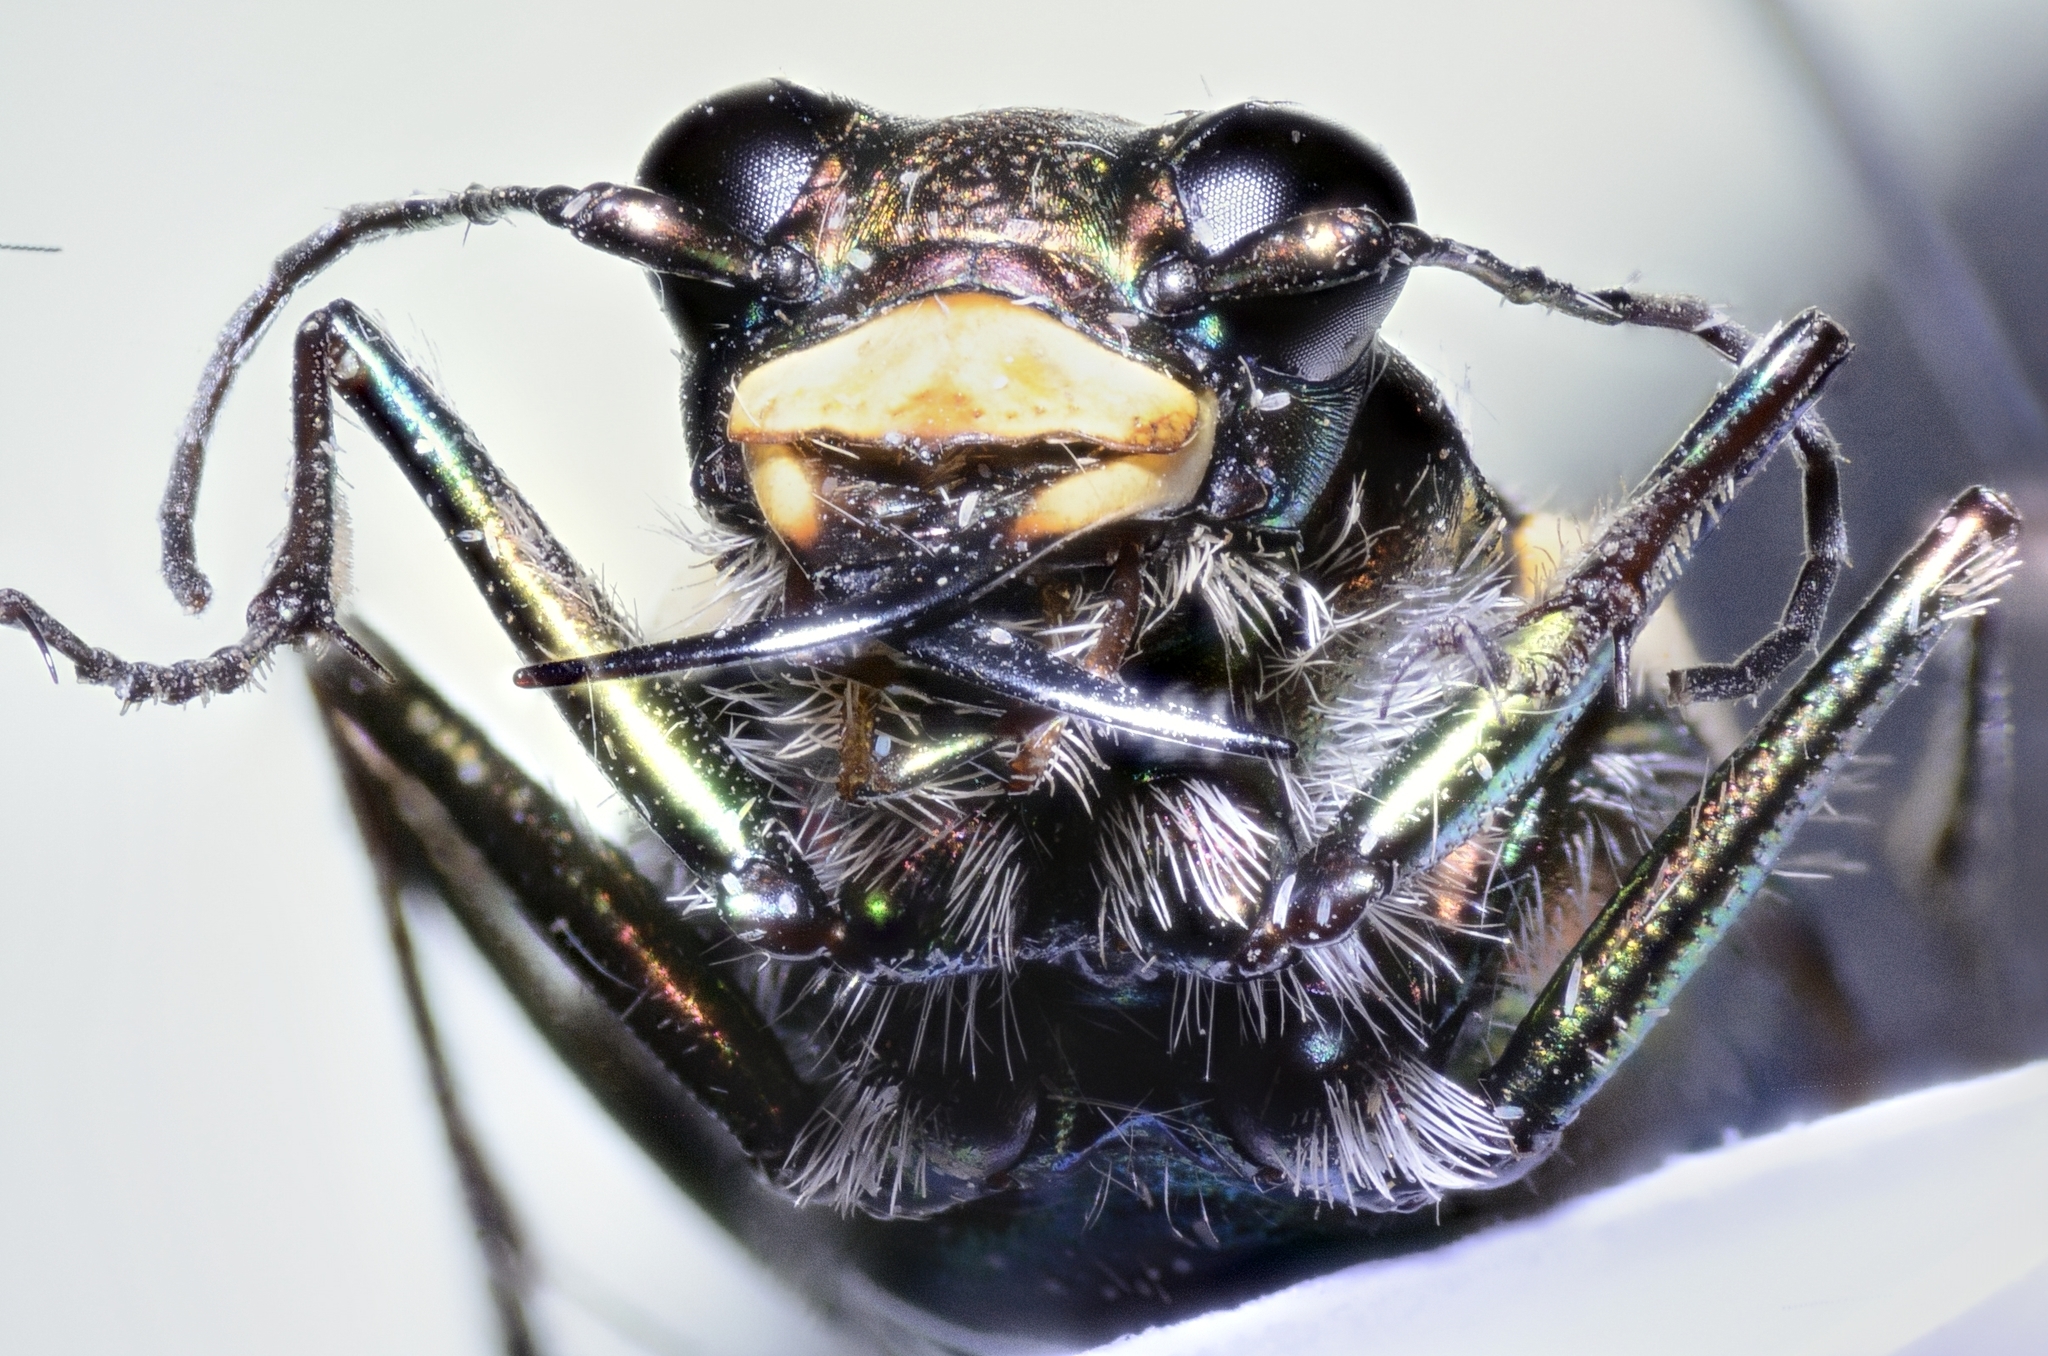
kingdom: Animalia
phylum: Arthropoda
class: Insecta
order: Coleoptera
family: Carabidae
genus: Cicindela
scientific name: Cicindela hirticollis
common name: Hairy-necked tiger beetle
